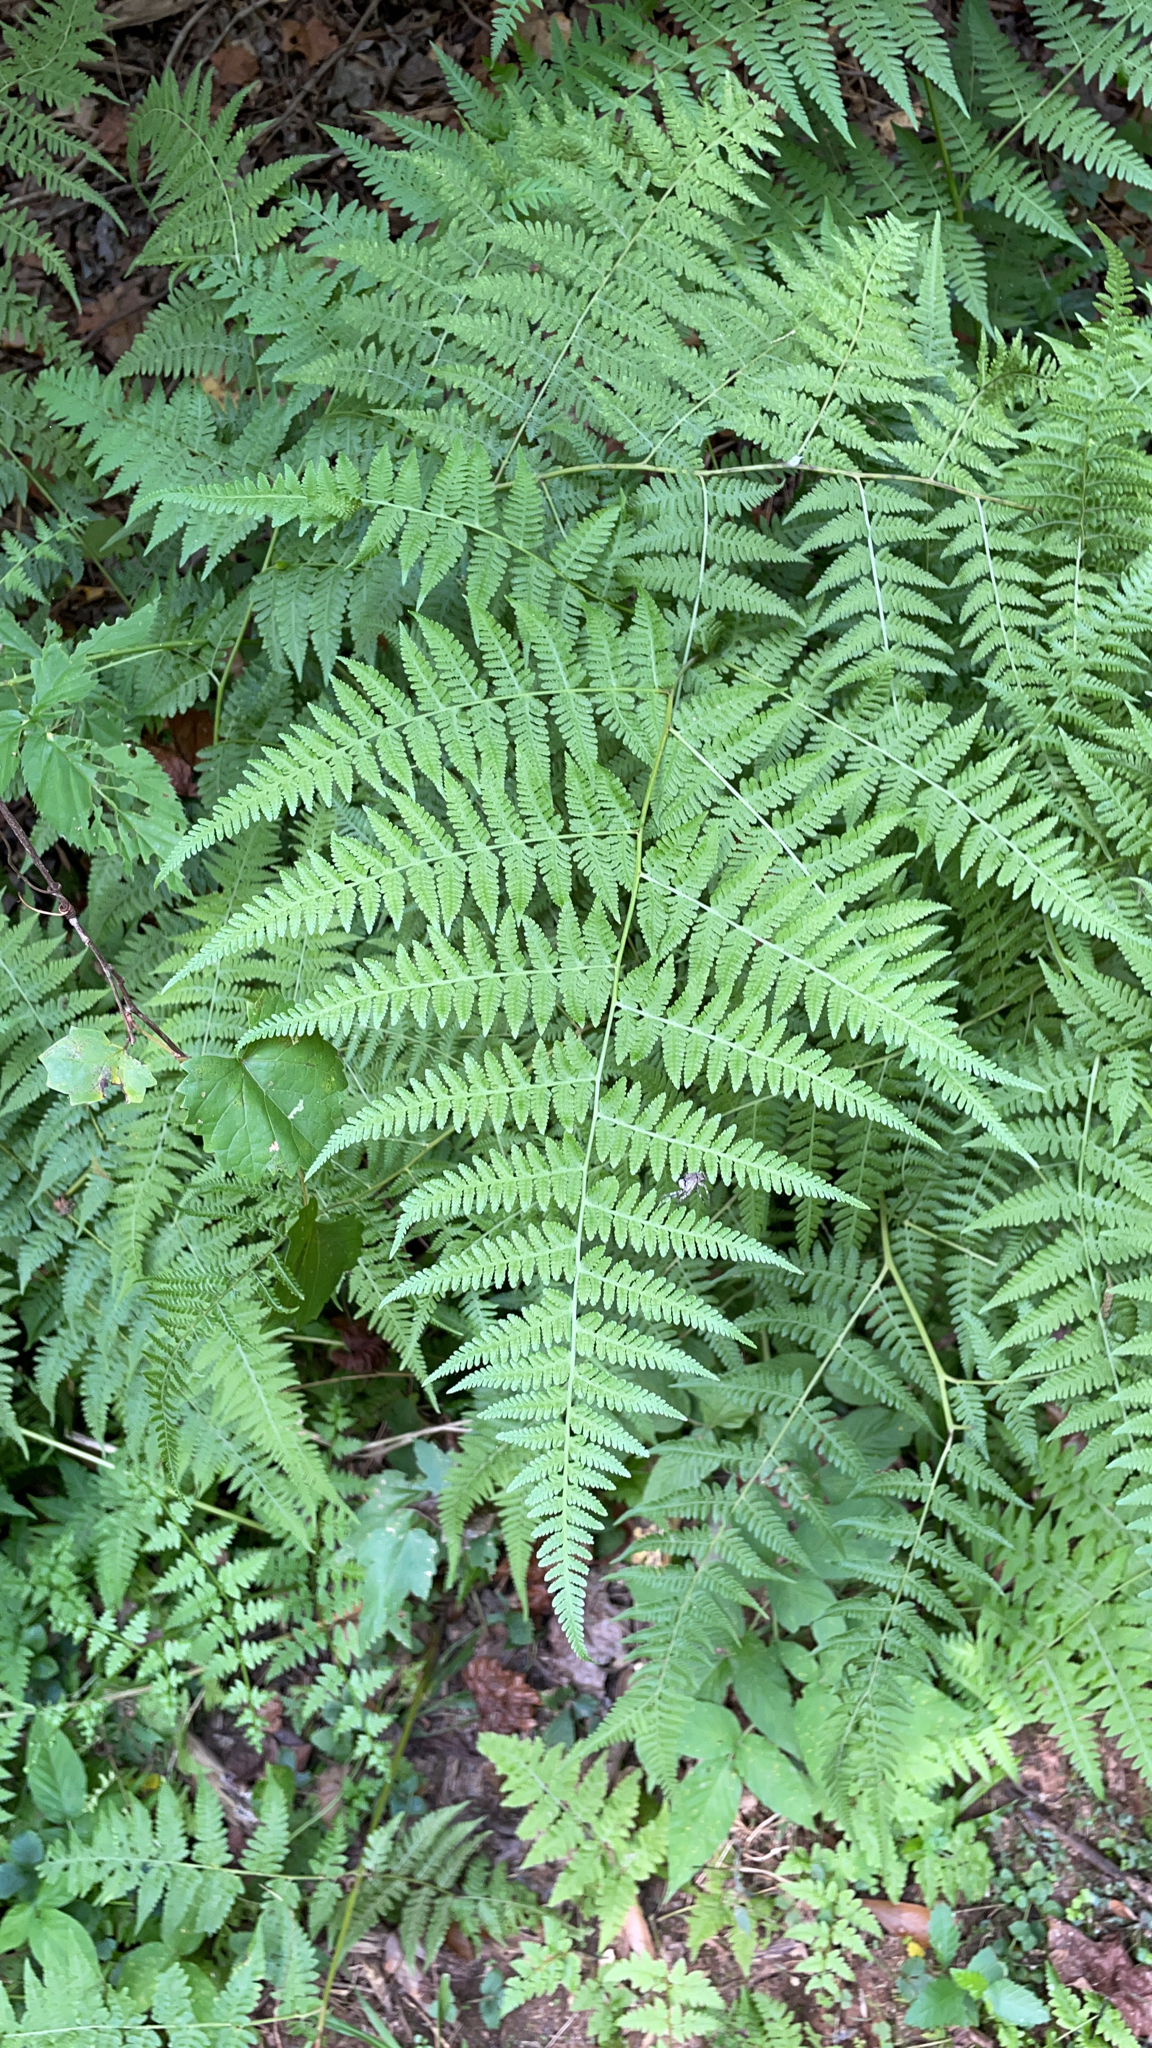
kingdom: Plantae
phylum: Tracheophyta
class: Polypodiopsida
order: Polypodiales
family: Thelypteridaceae
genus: Macrothelypteris
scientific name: Macrothelypteris torresiana
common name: Swordfern
